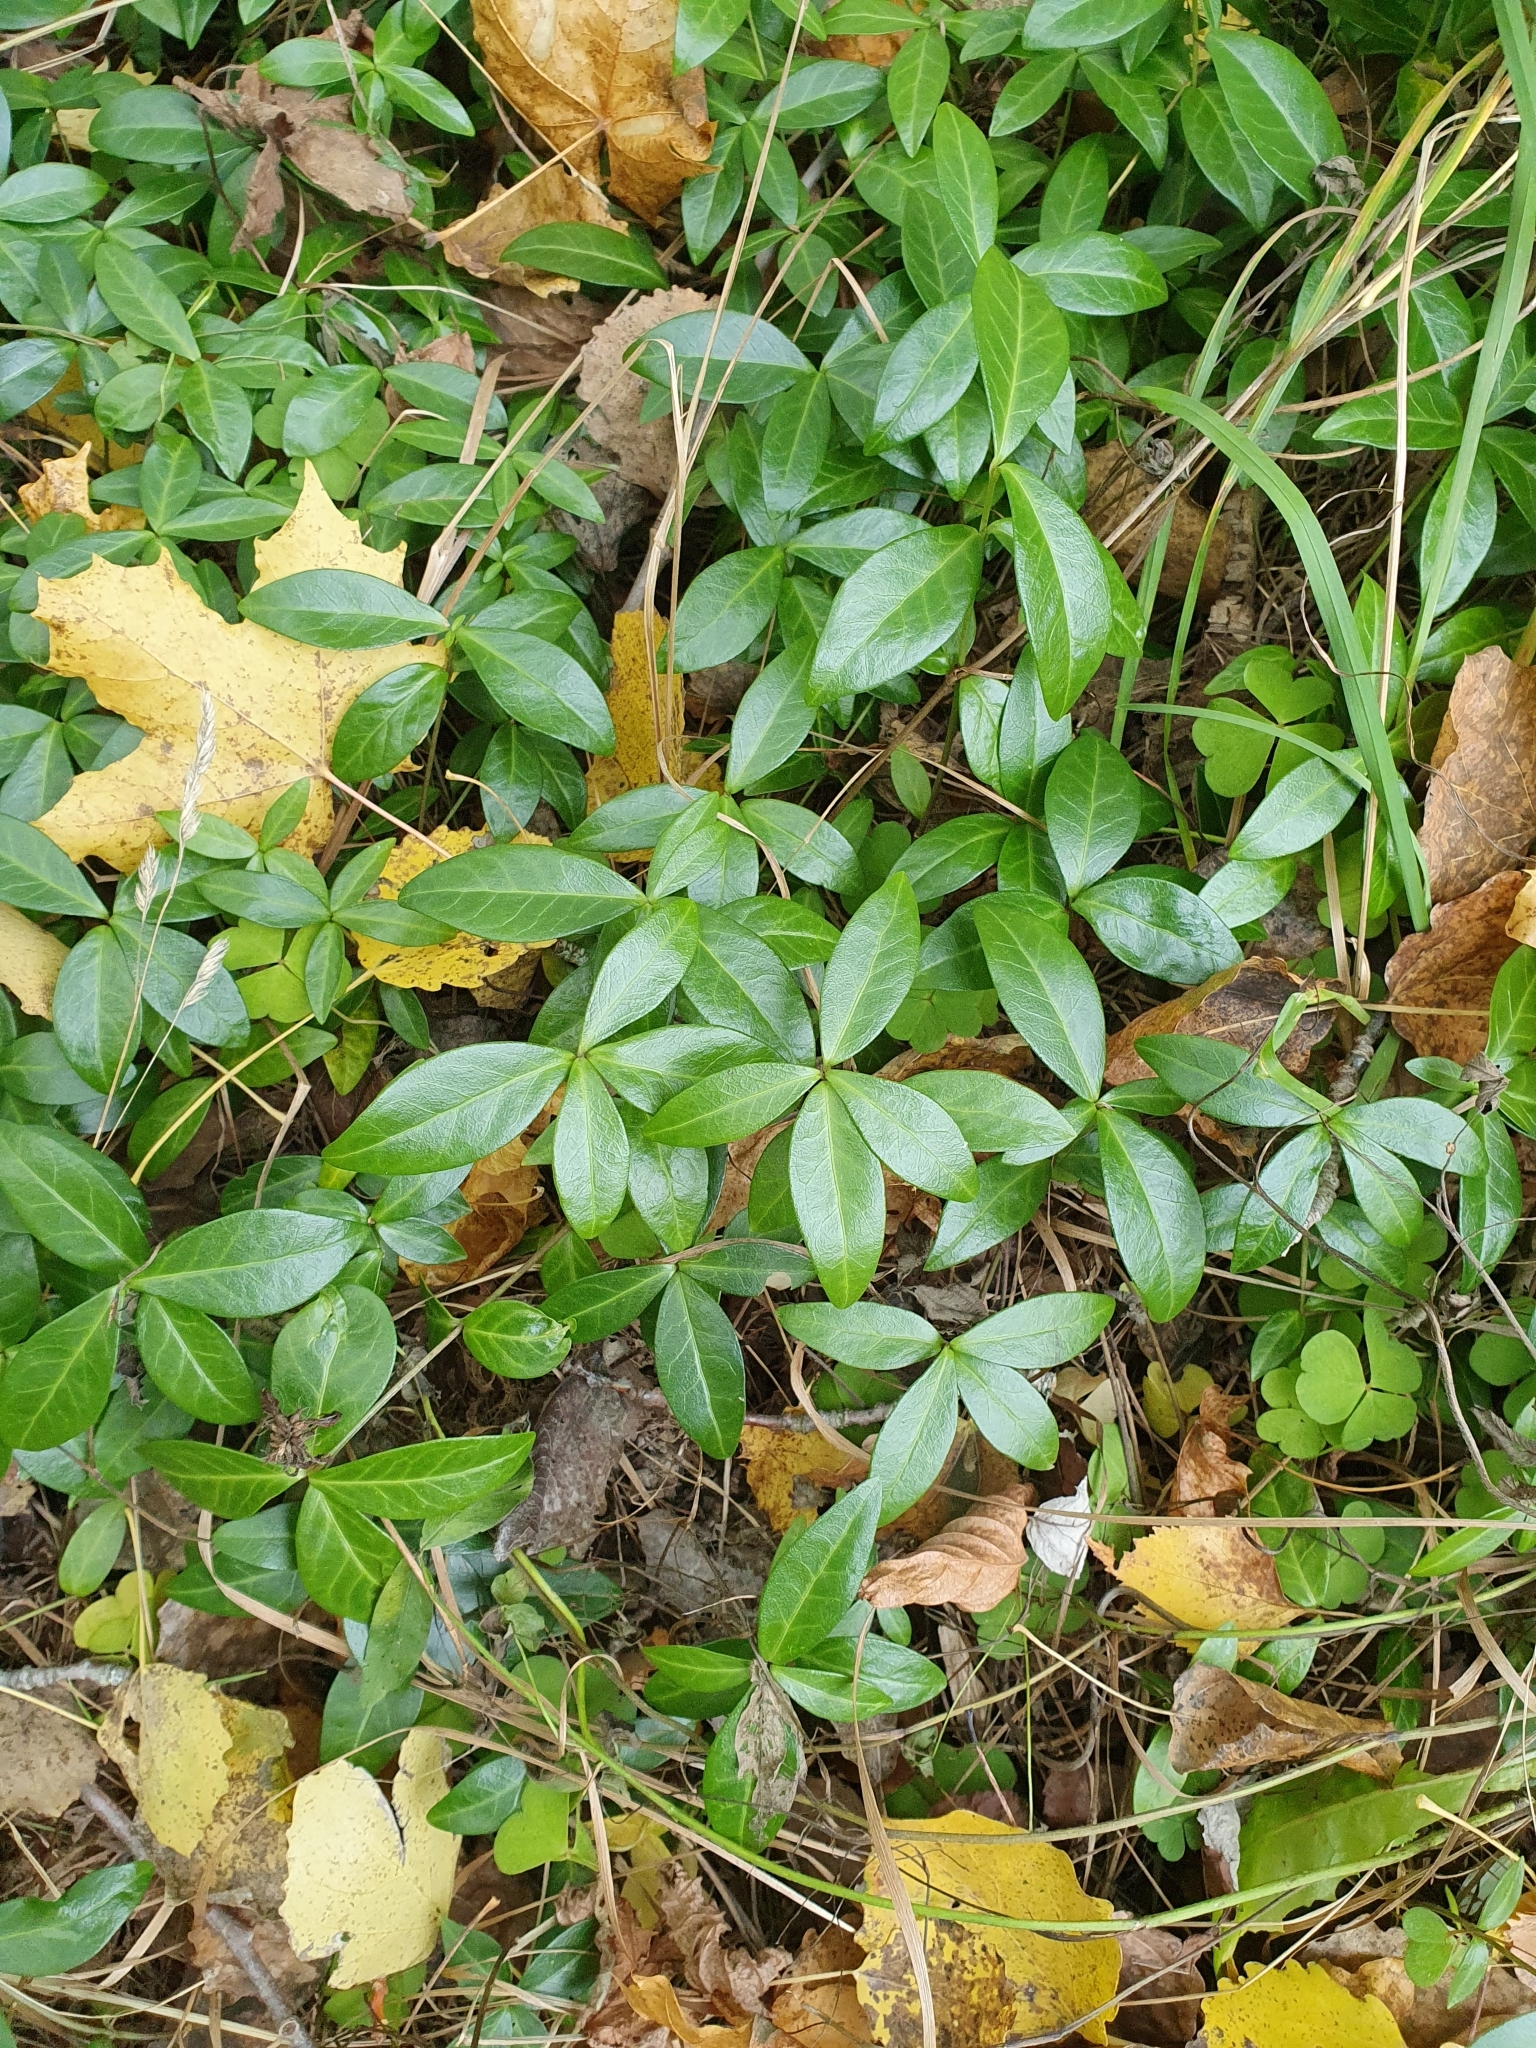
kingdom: Plantae
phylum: Tracheophyta
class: Magnoliopsida
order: Gentianales
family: Apocynaceae
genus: Vinca
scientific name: Vinca minor
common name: Lesser periwinkle
